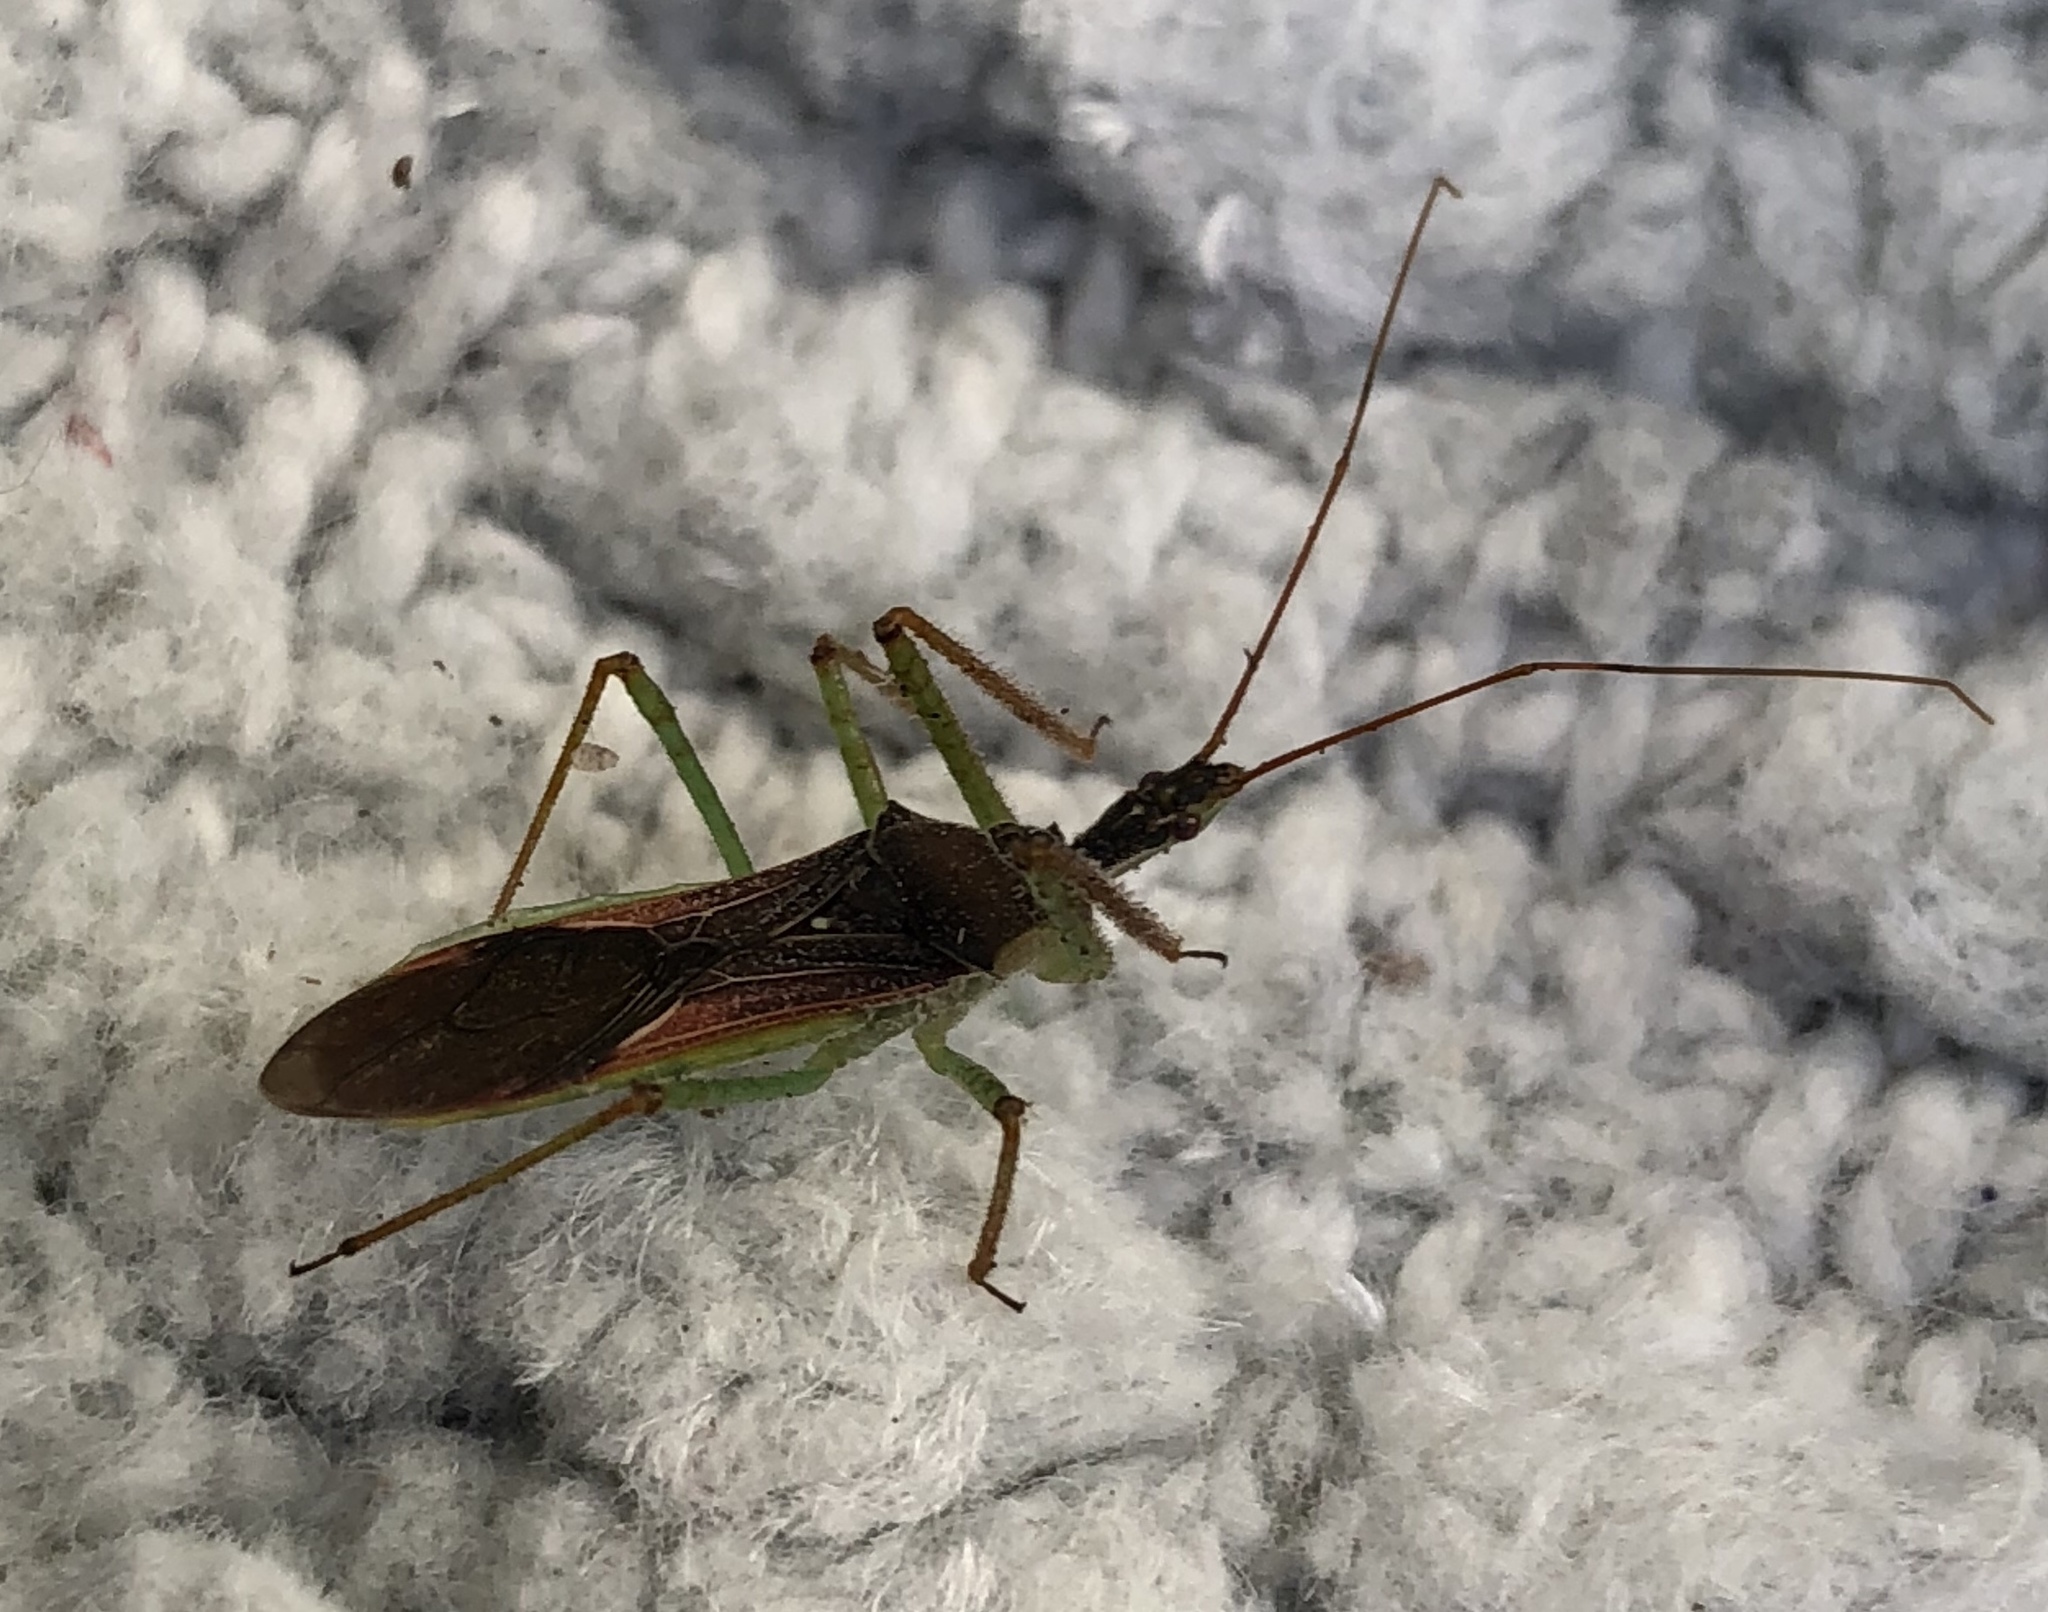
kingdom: Animalia
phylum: Arthropoda
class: Insecta
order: Hemiptera
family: Reduviidae
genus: Zelus
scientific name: Zelus renardii
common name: Assassin bug
